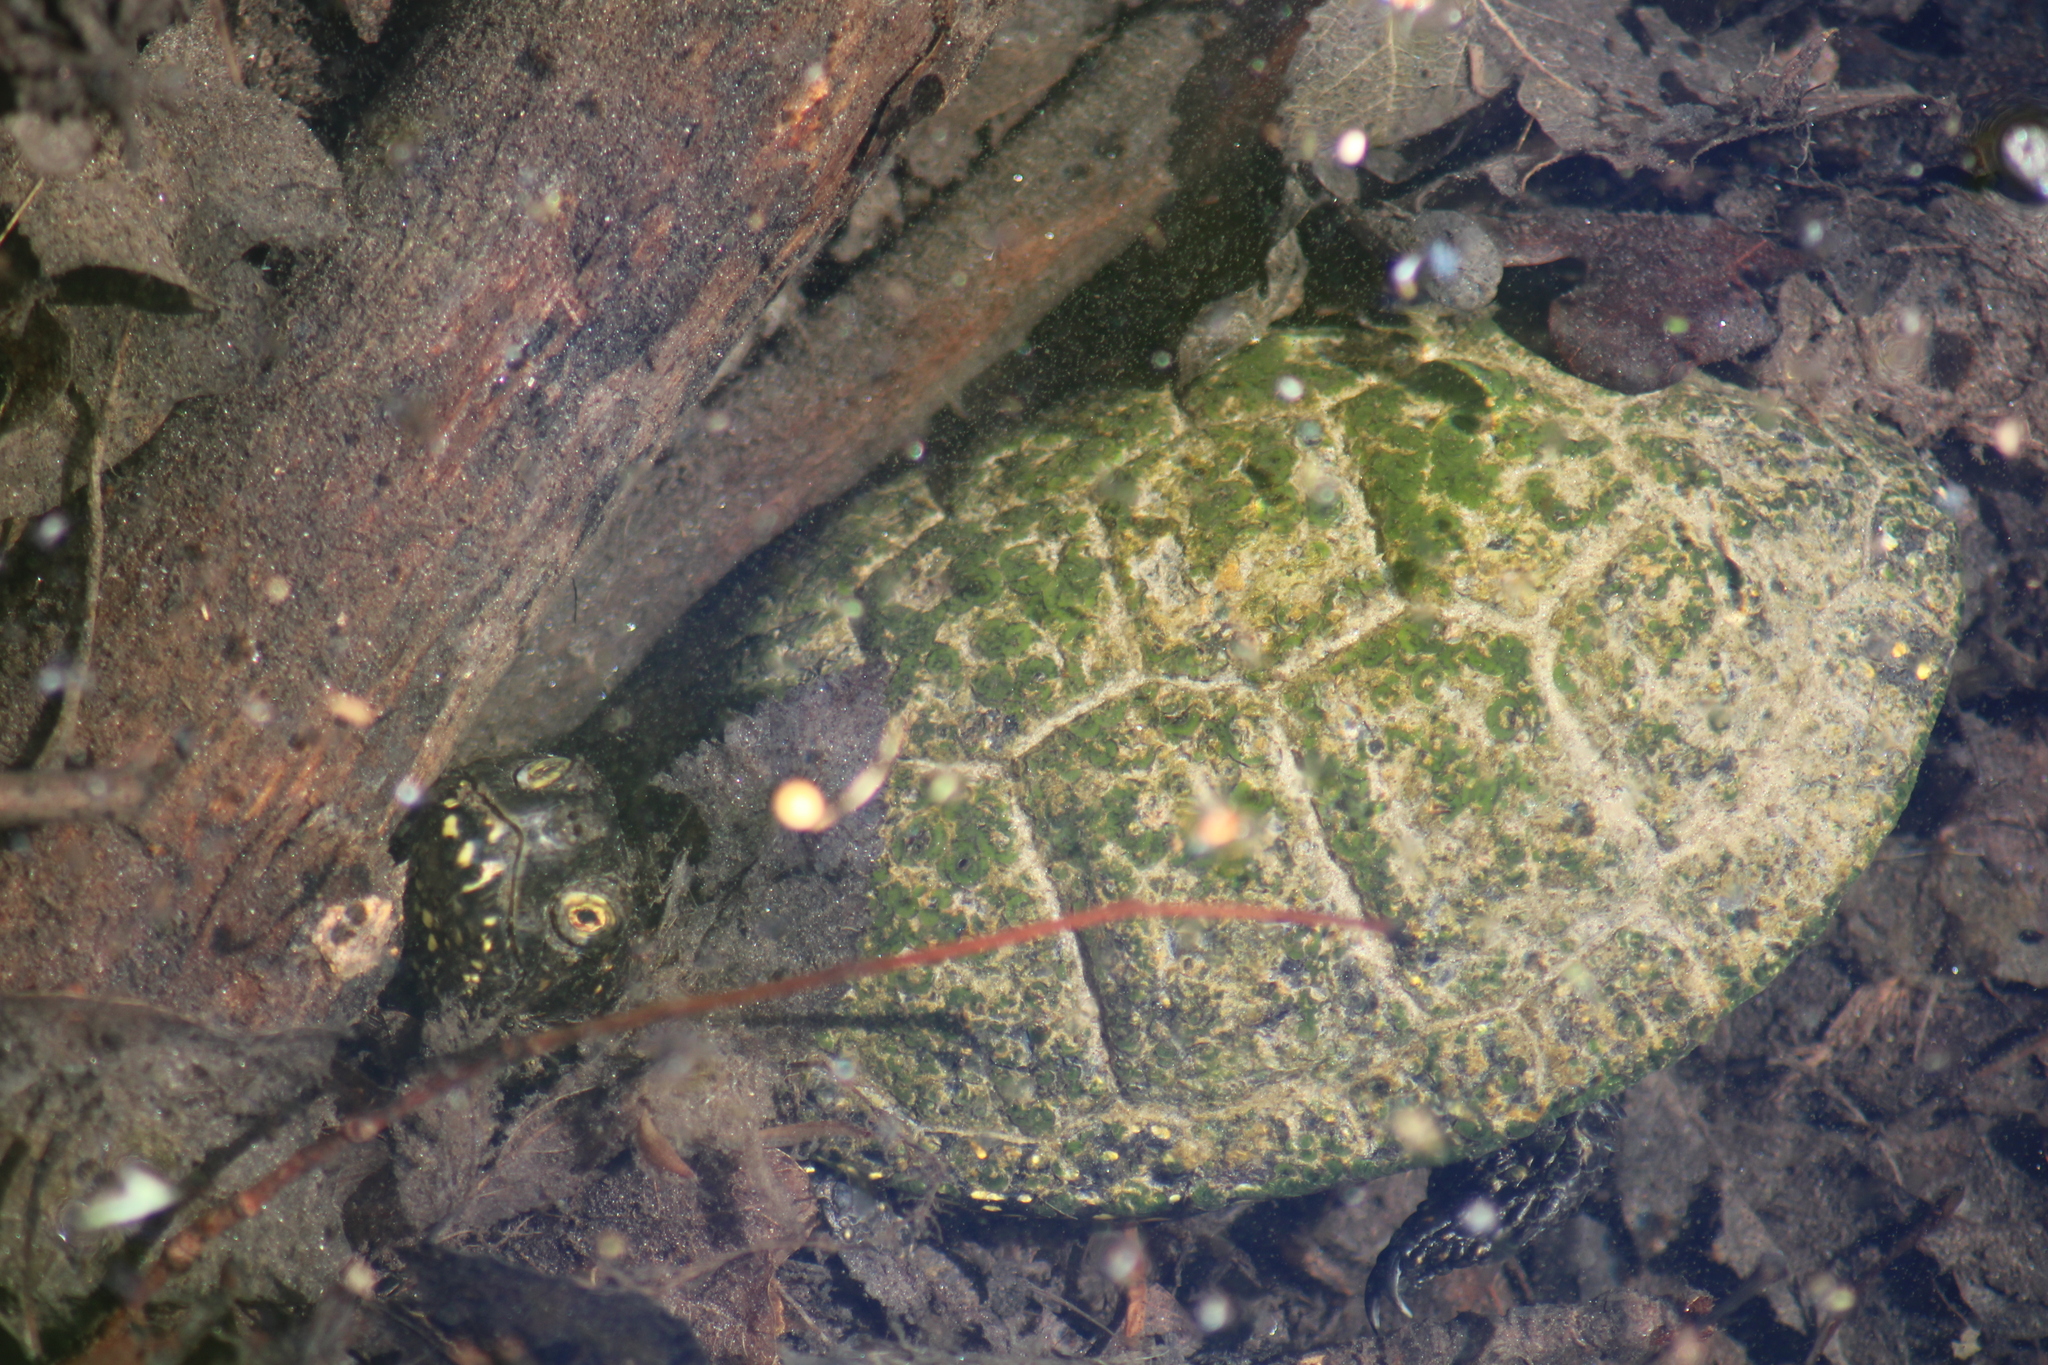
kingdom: Animalia
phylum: Chordata
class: Testudines
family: Emydidae
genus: Emys
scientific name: Emys orbicularis
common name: European pond turtle
